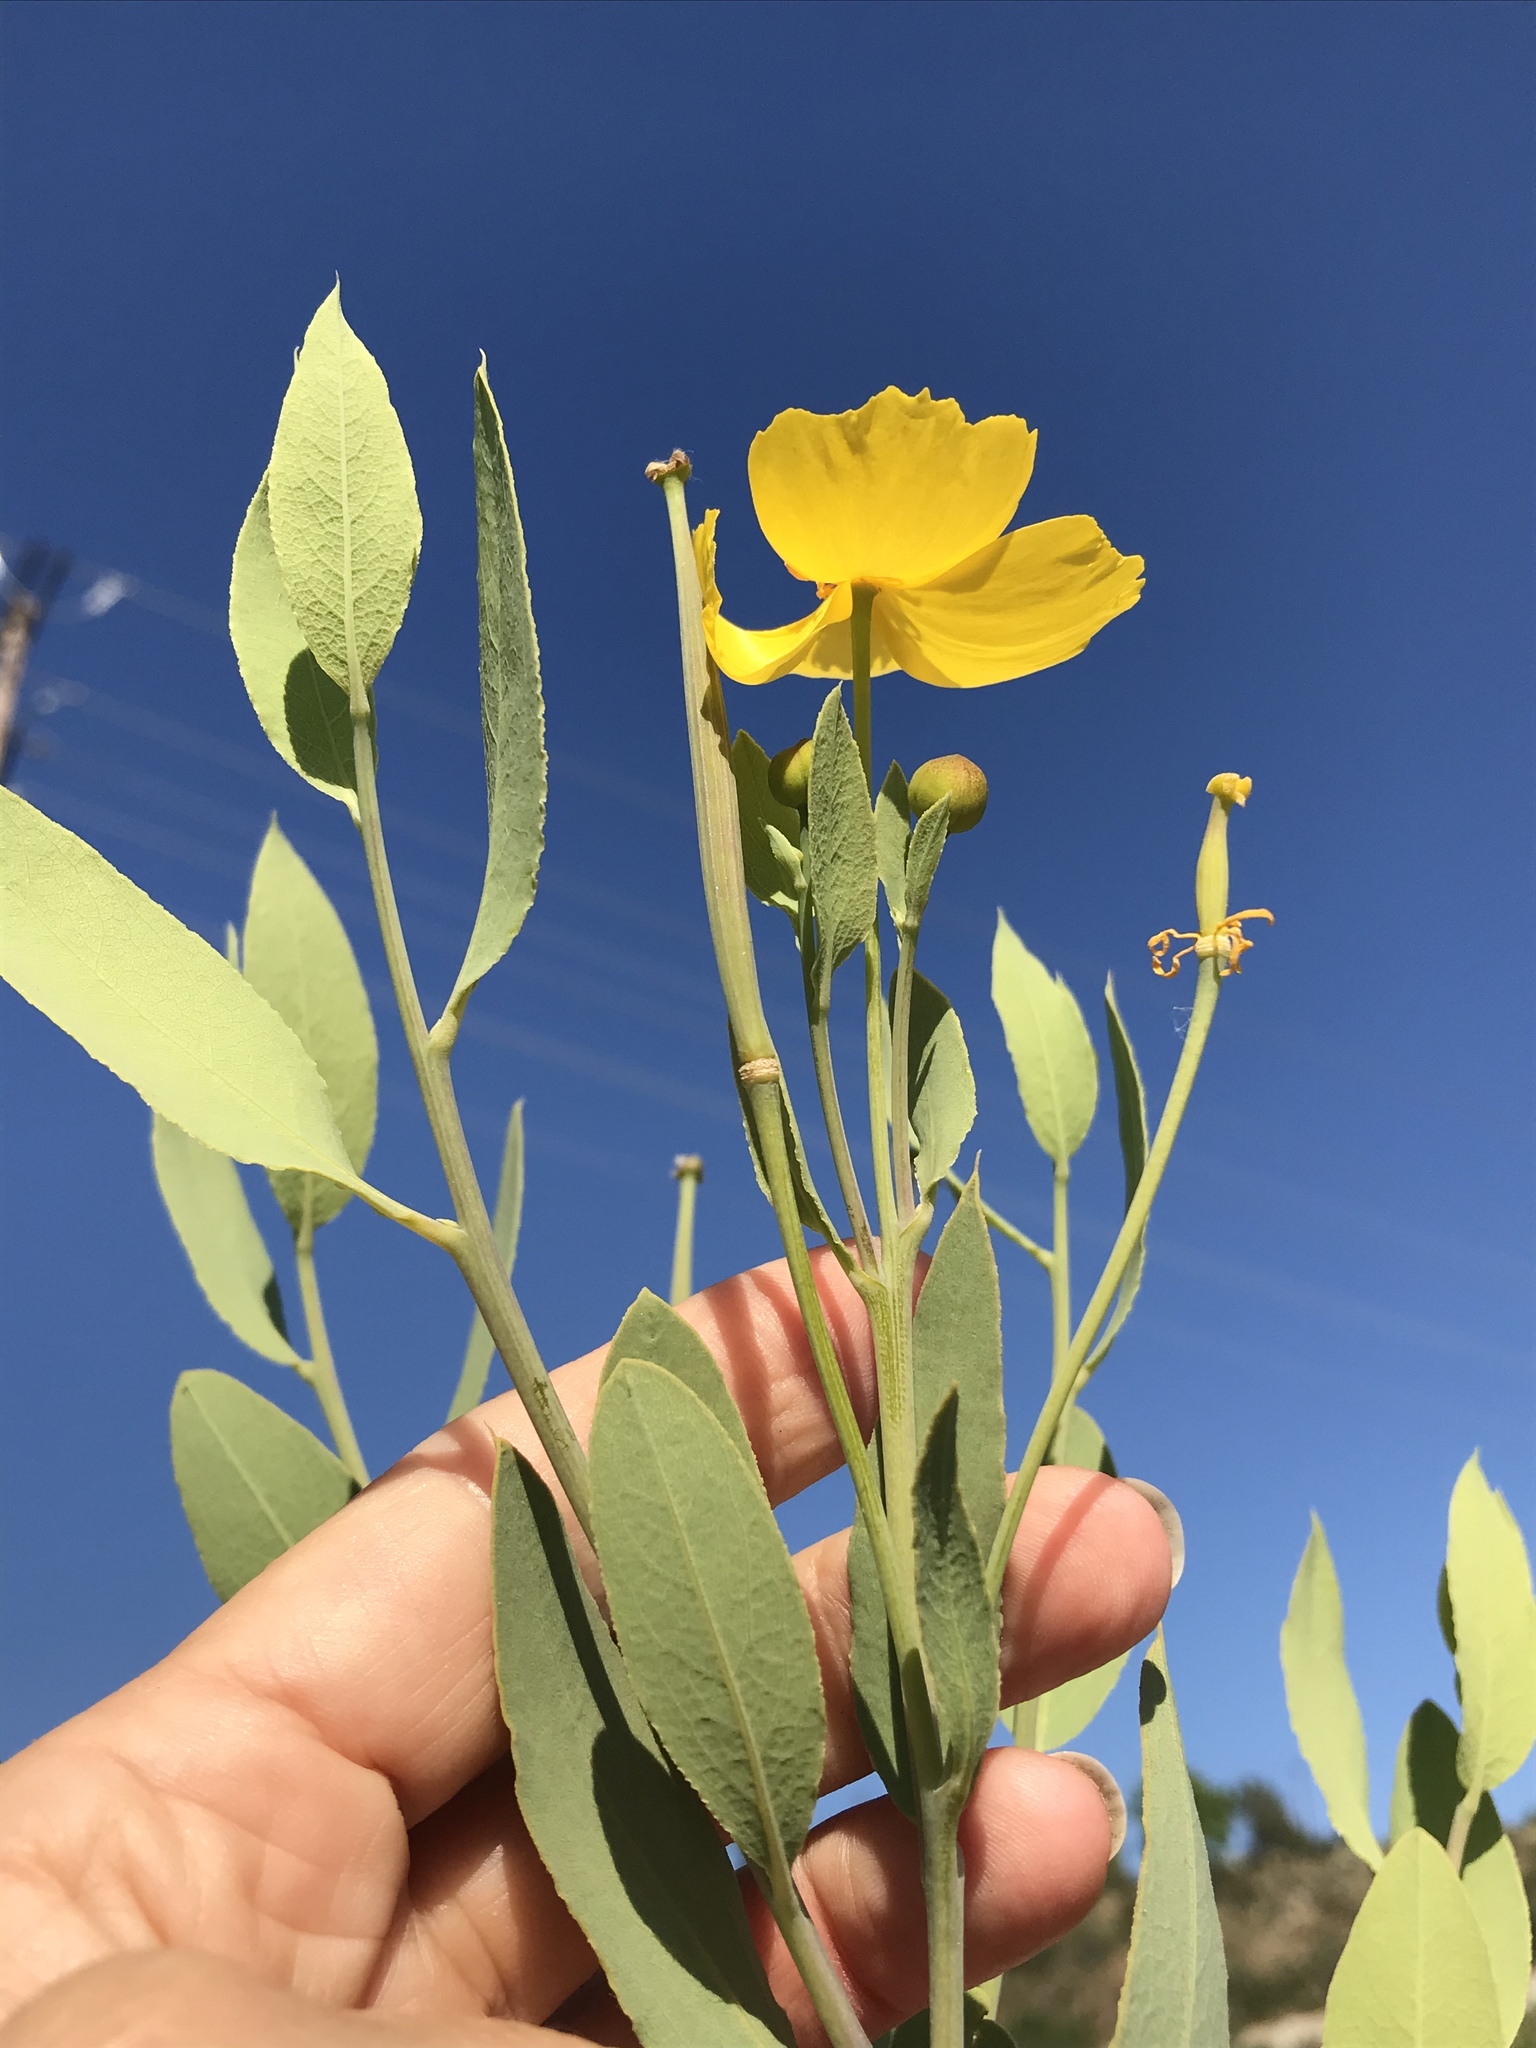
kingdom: Plantae
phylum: Tracheophyta
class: Magnoliopsida
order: Ranunculales
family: Papaveraceae
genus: Dendromecon
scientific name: Dendromecon rigida
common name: Tree poppy
